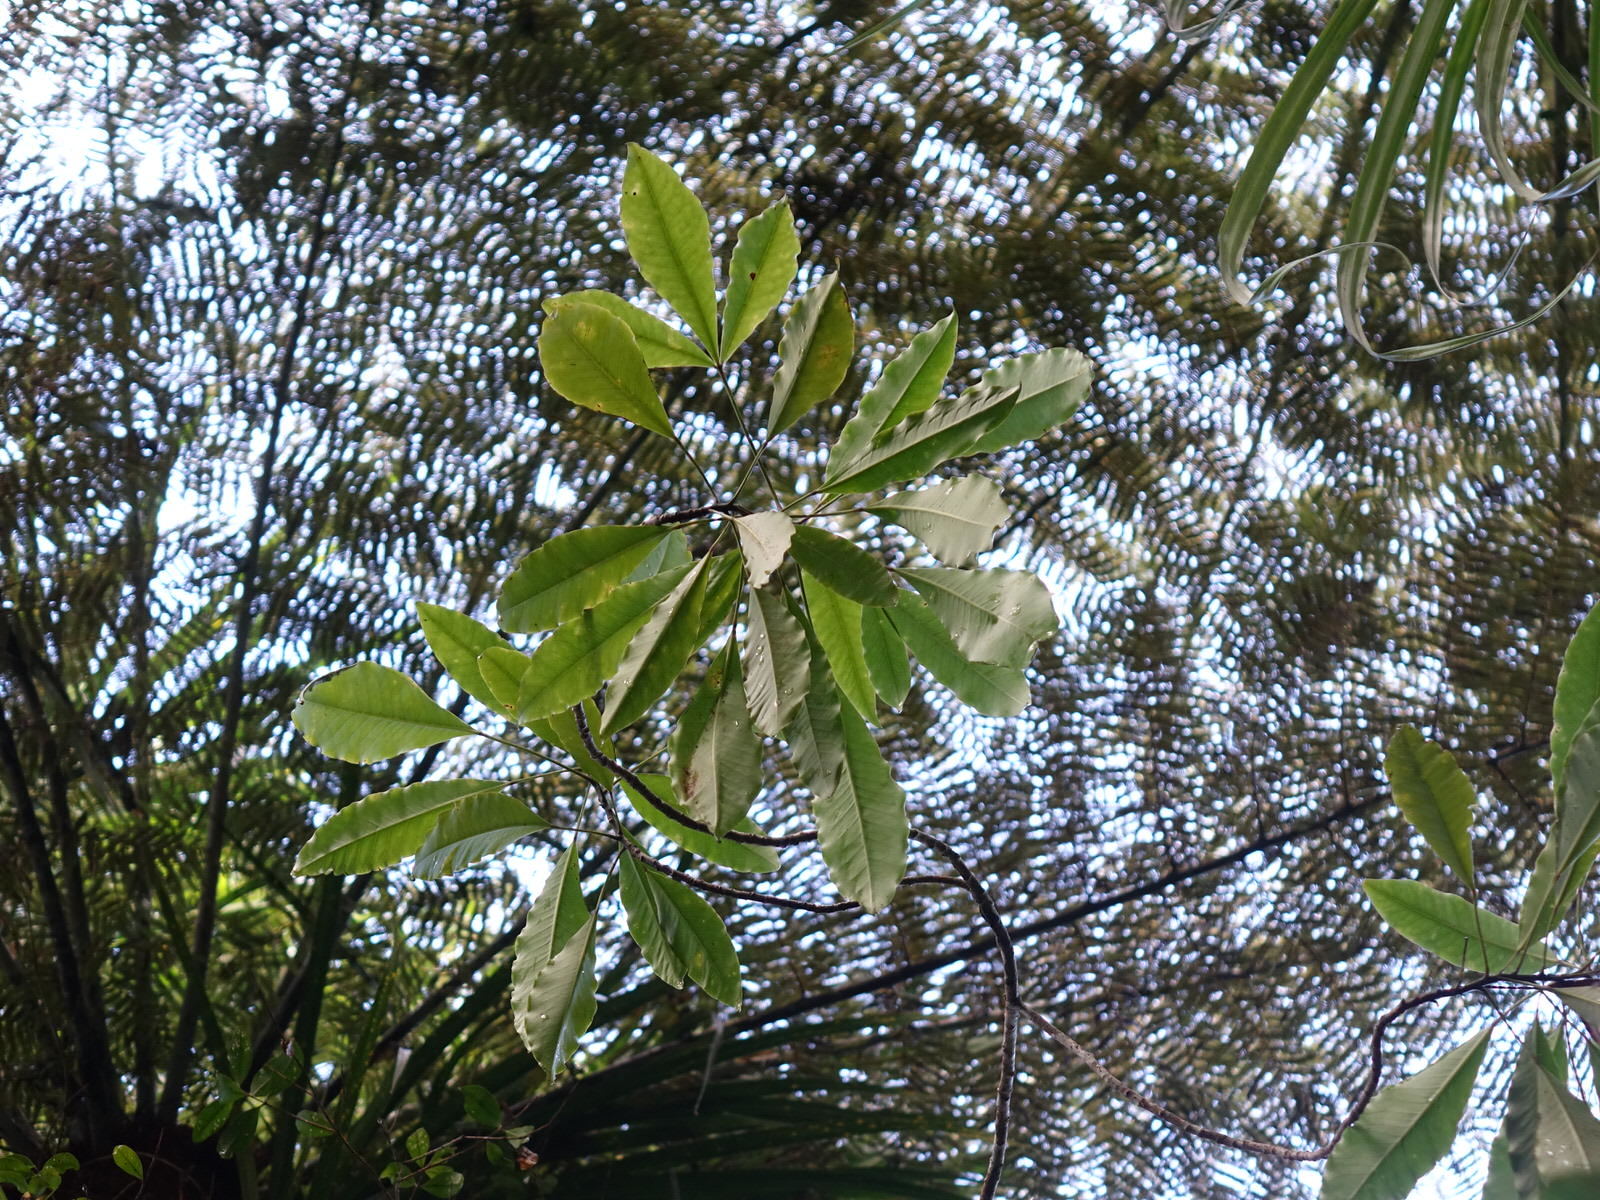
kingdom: Plantae
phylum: Tracheophyta
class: Magnoliopsida
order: Apiales
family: Araliaceae
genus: Raukaua
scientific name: Raukaua edgerleyi
